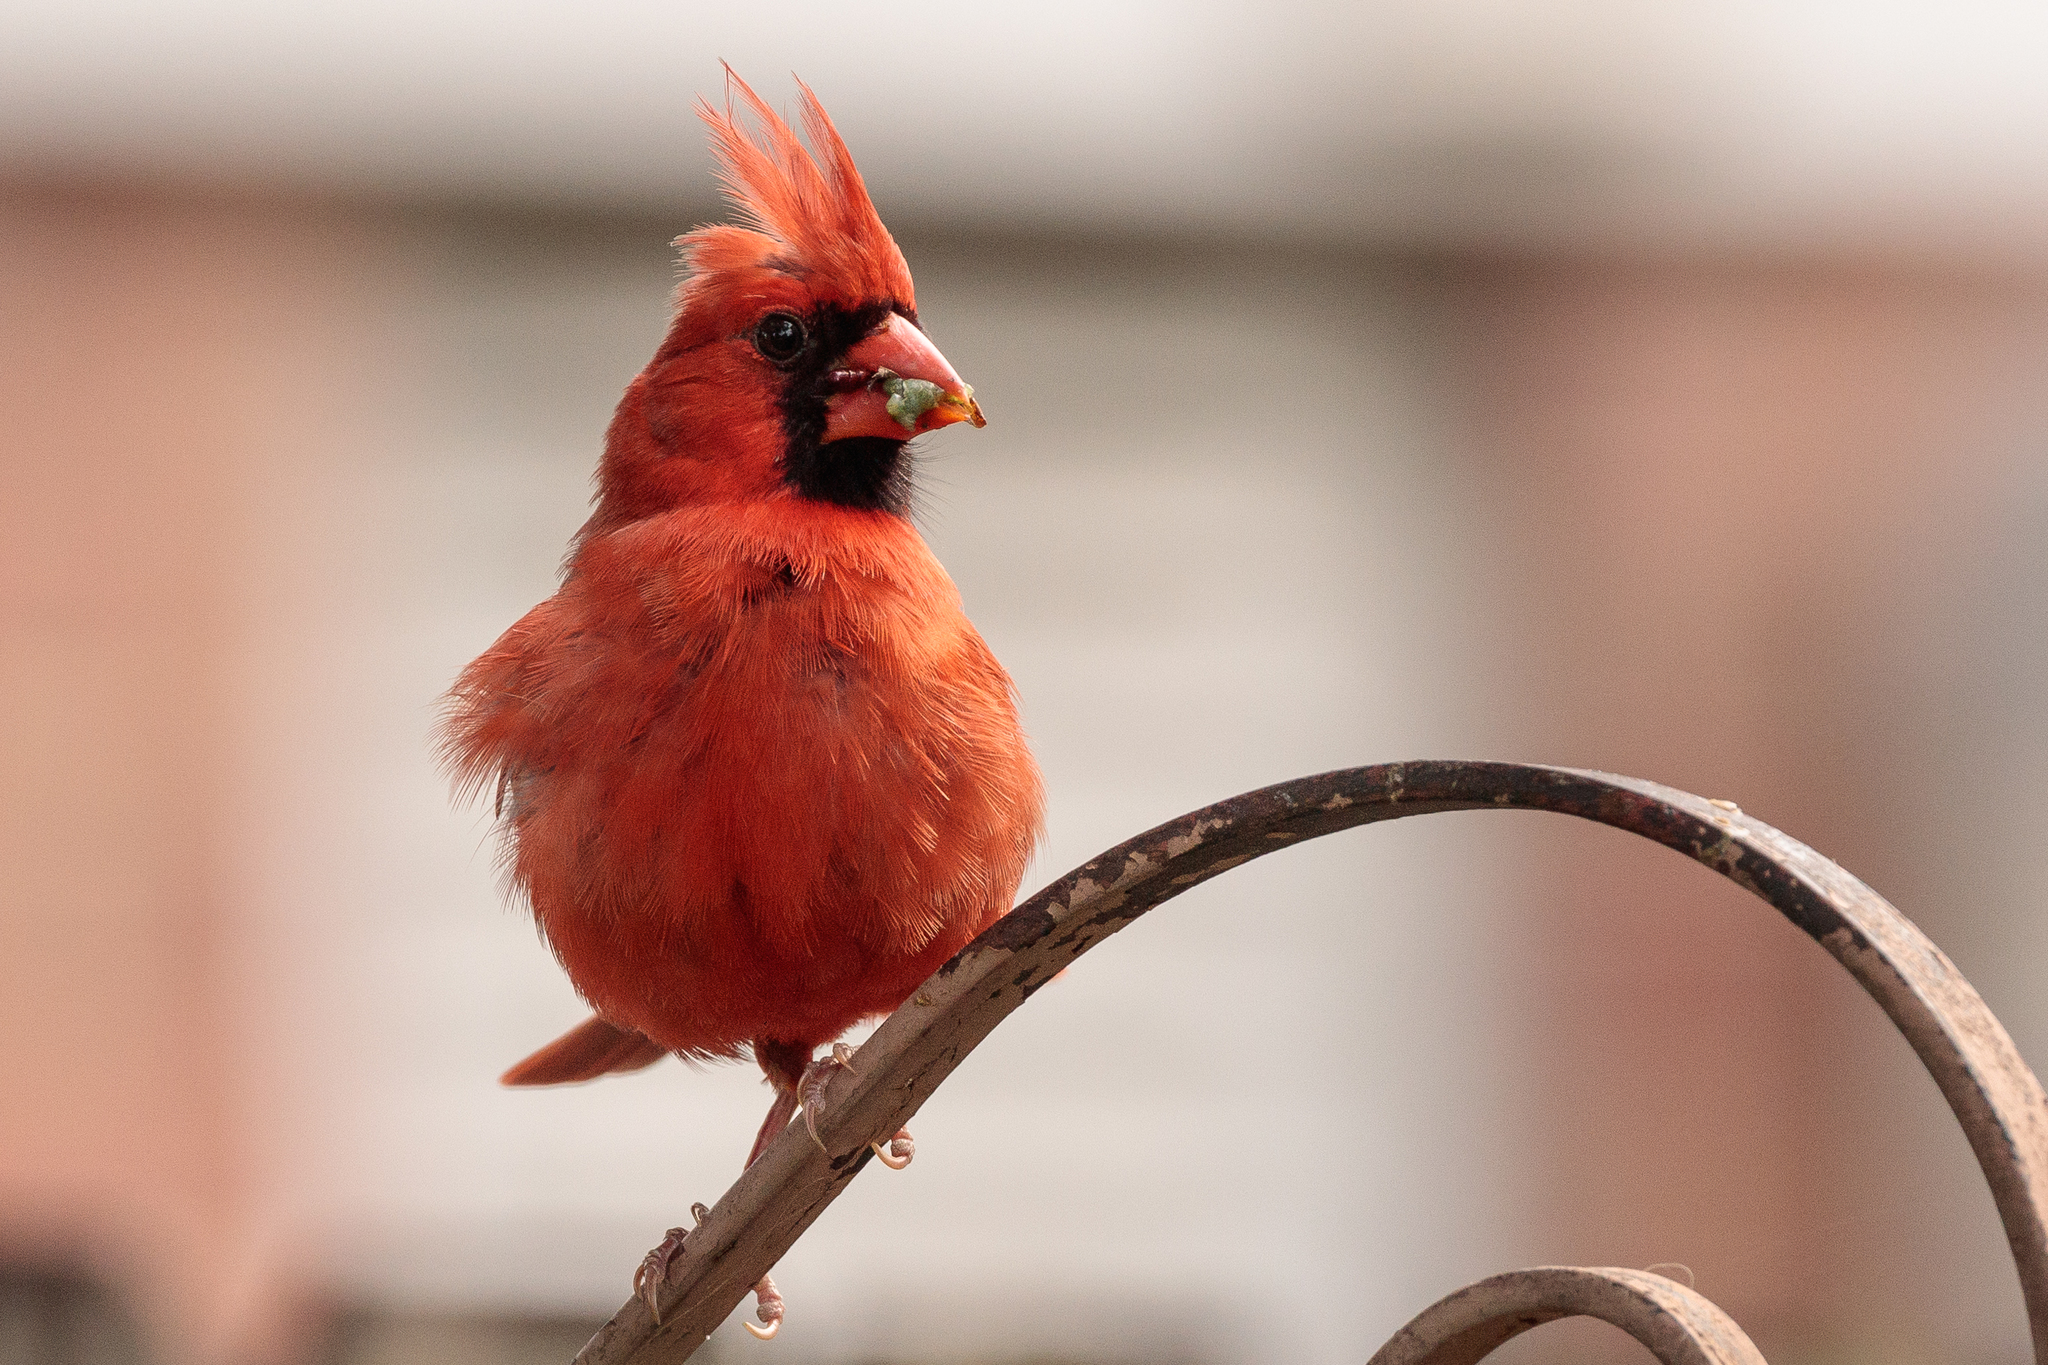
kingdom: Animalia
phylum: Chordata
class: Aves
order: Passeriformes
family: Cardinalidae
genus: Cardinalis
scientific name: Cardinalis cardinalis
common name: Northern cardinal
